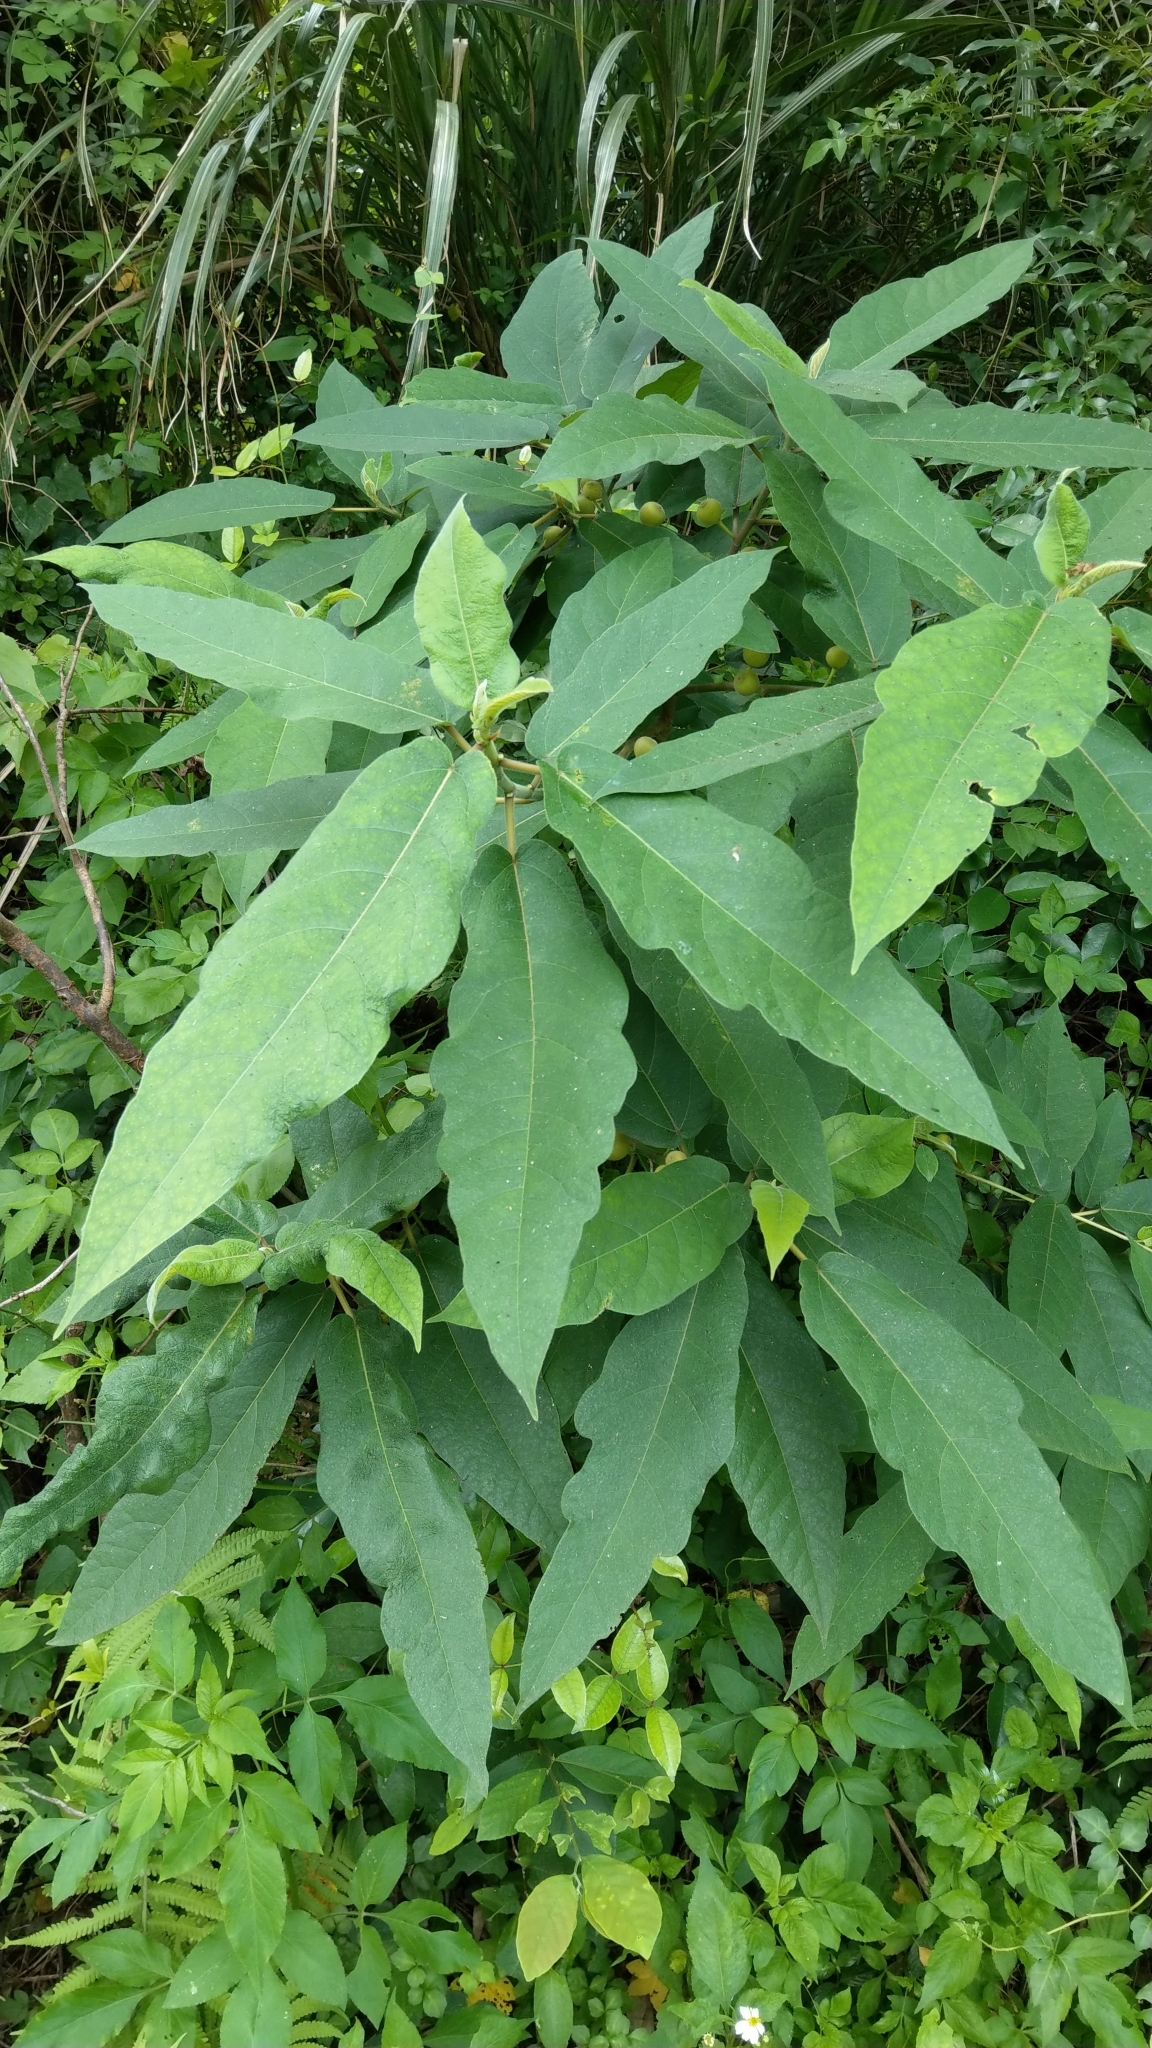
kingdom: Plantae
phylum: Tracheophyta
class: Magnoliopsida
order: Rosales
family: Moraceae
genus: Ficus
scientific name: Ficus erecta
